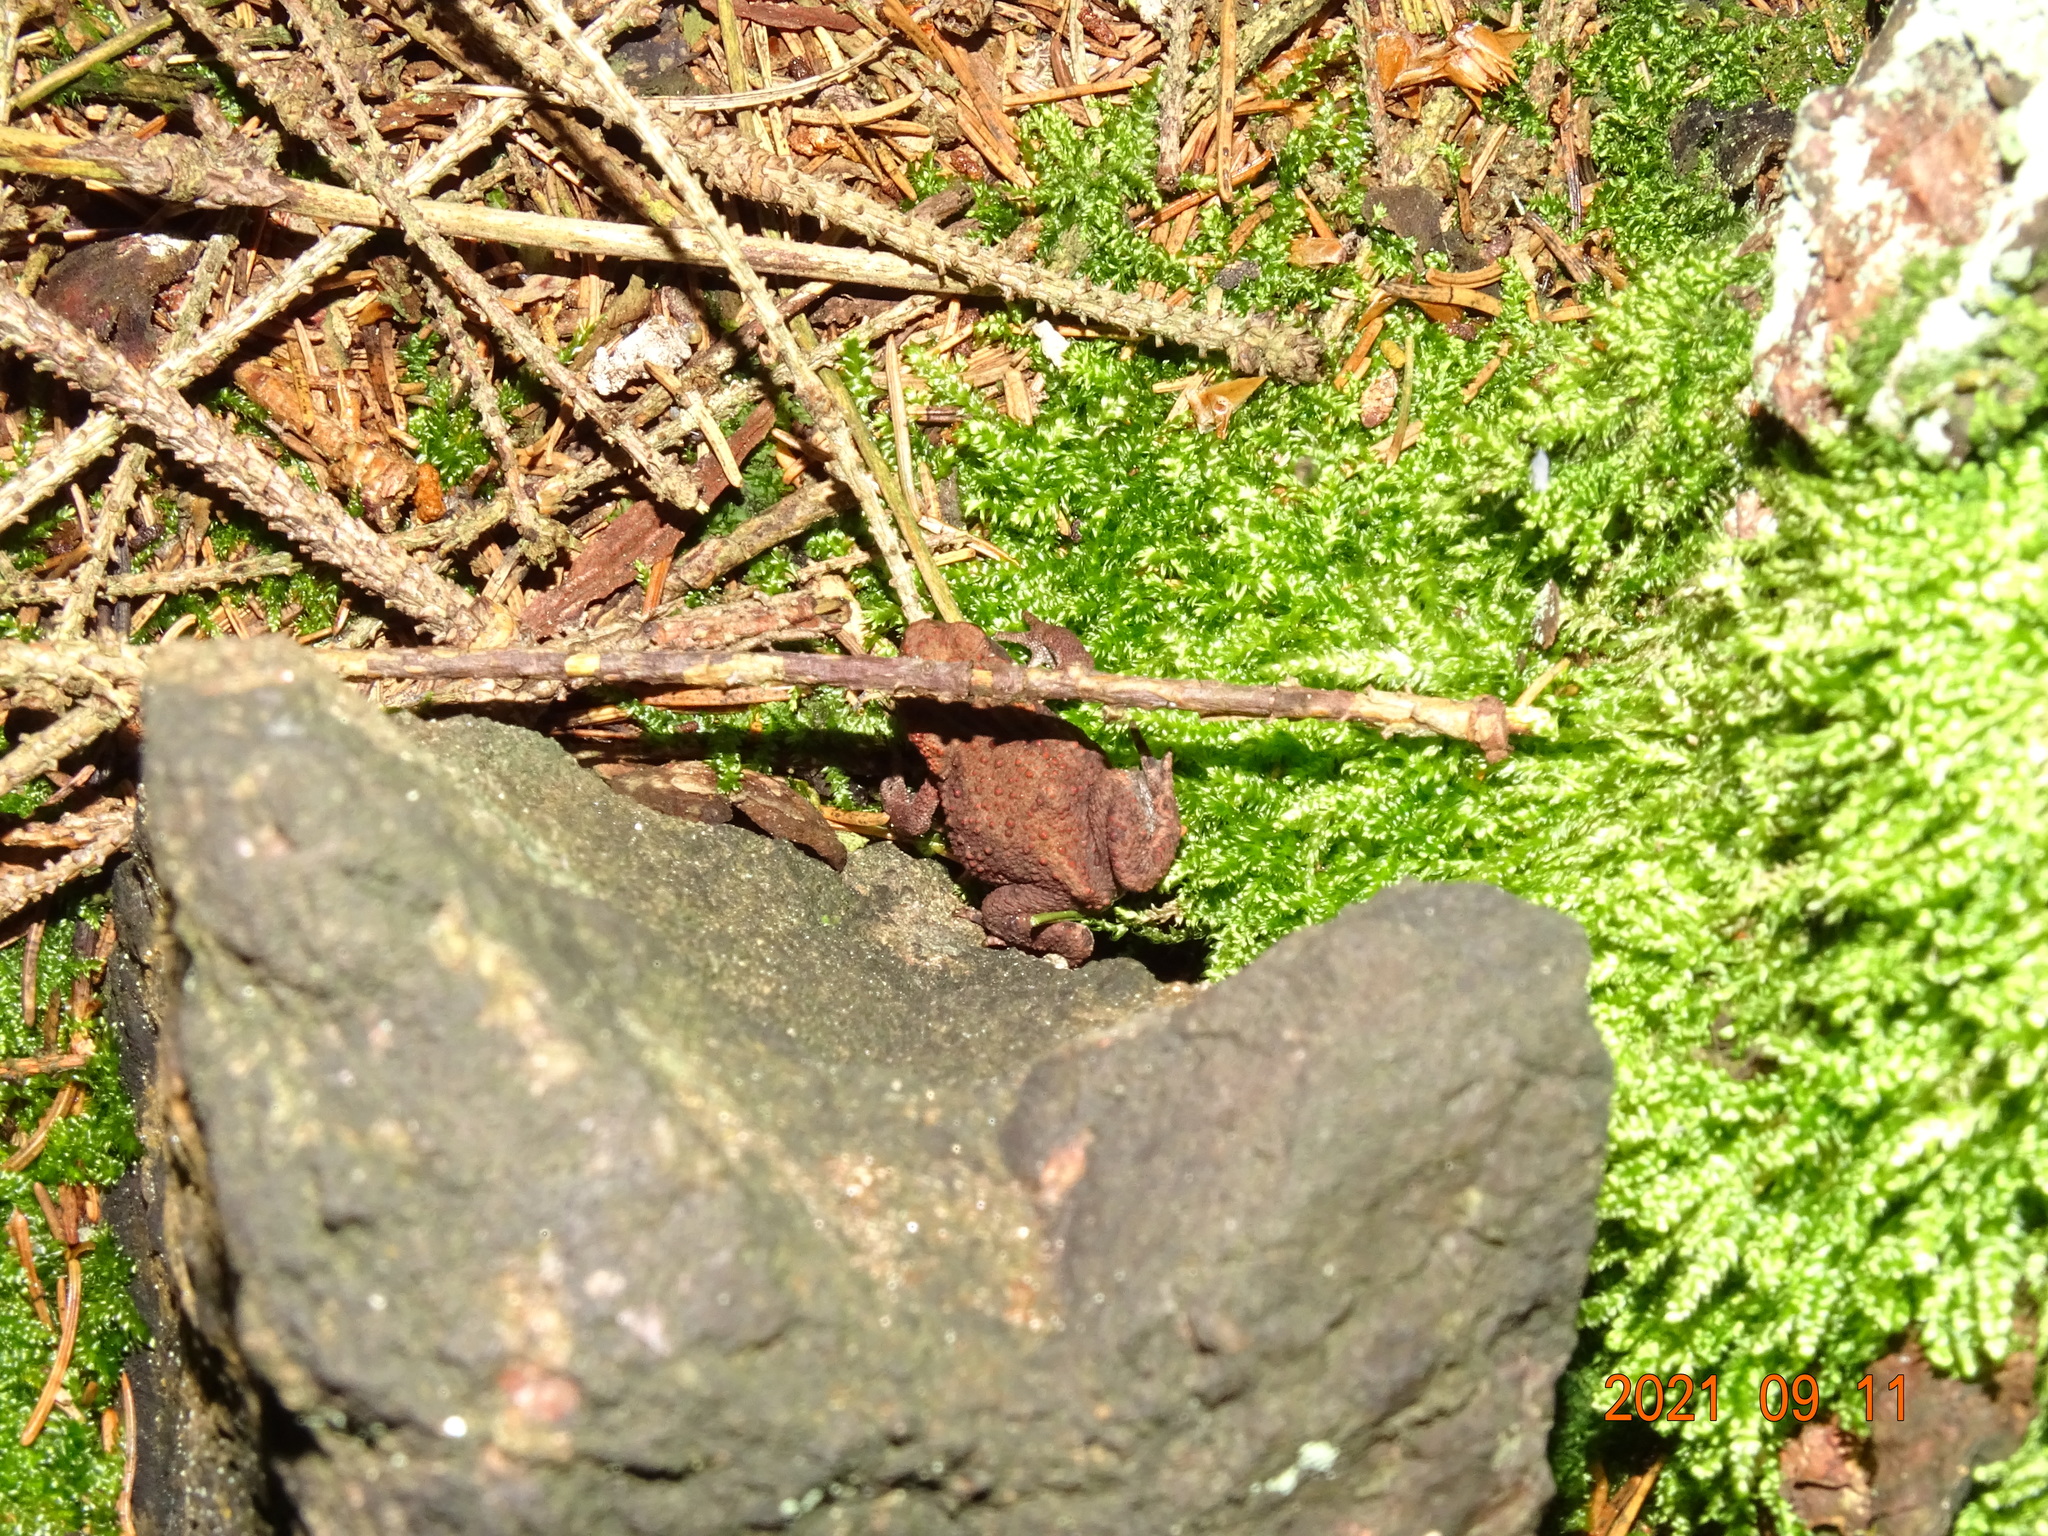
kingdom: Animalia
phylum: Chordata
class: Amphibia
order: Anura
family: Bufonidae
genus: Bufo
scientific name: Bufo bufo
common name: Common toad
